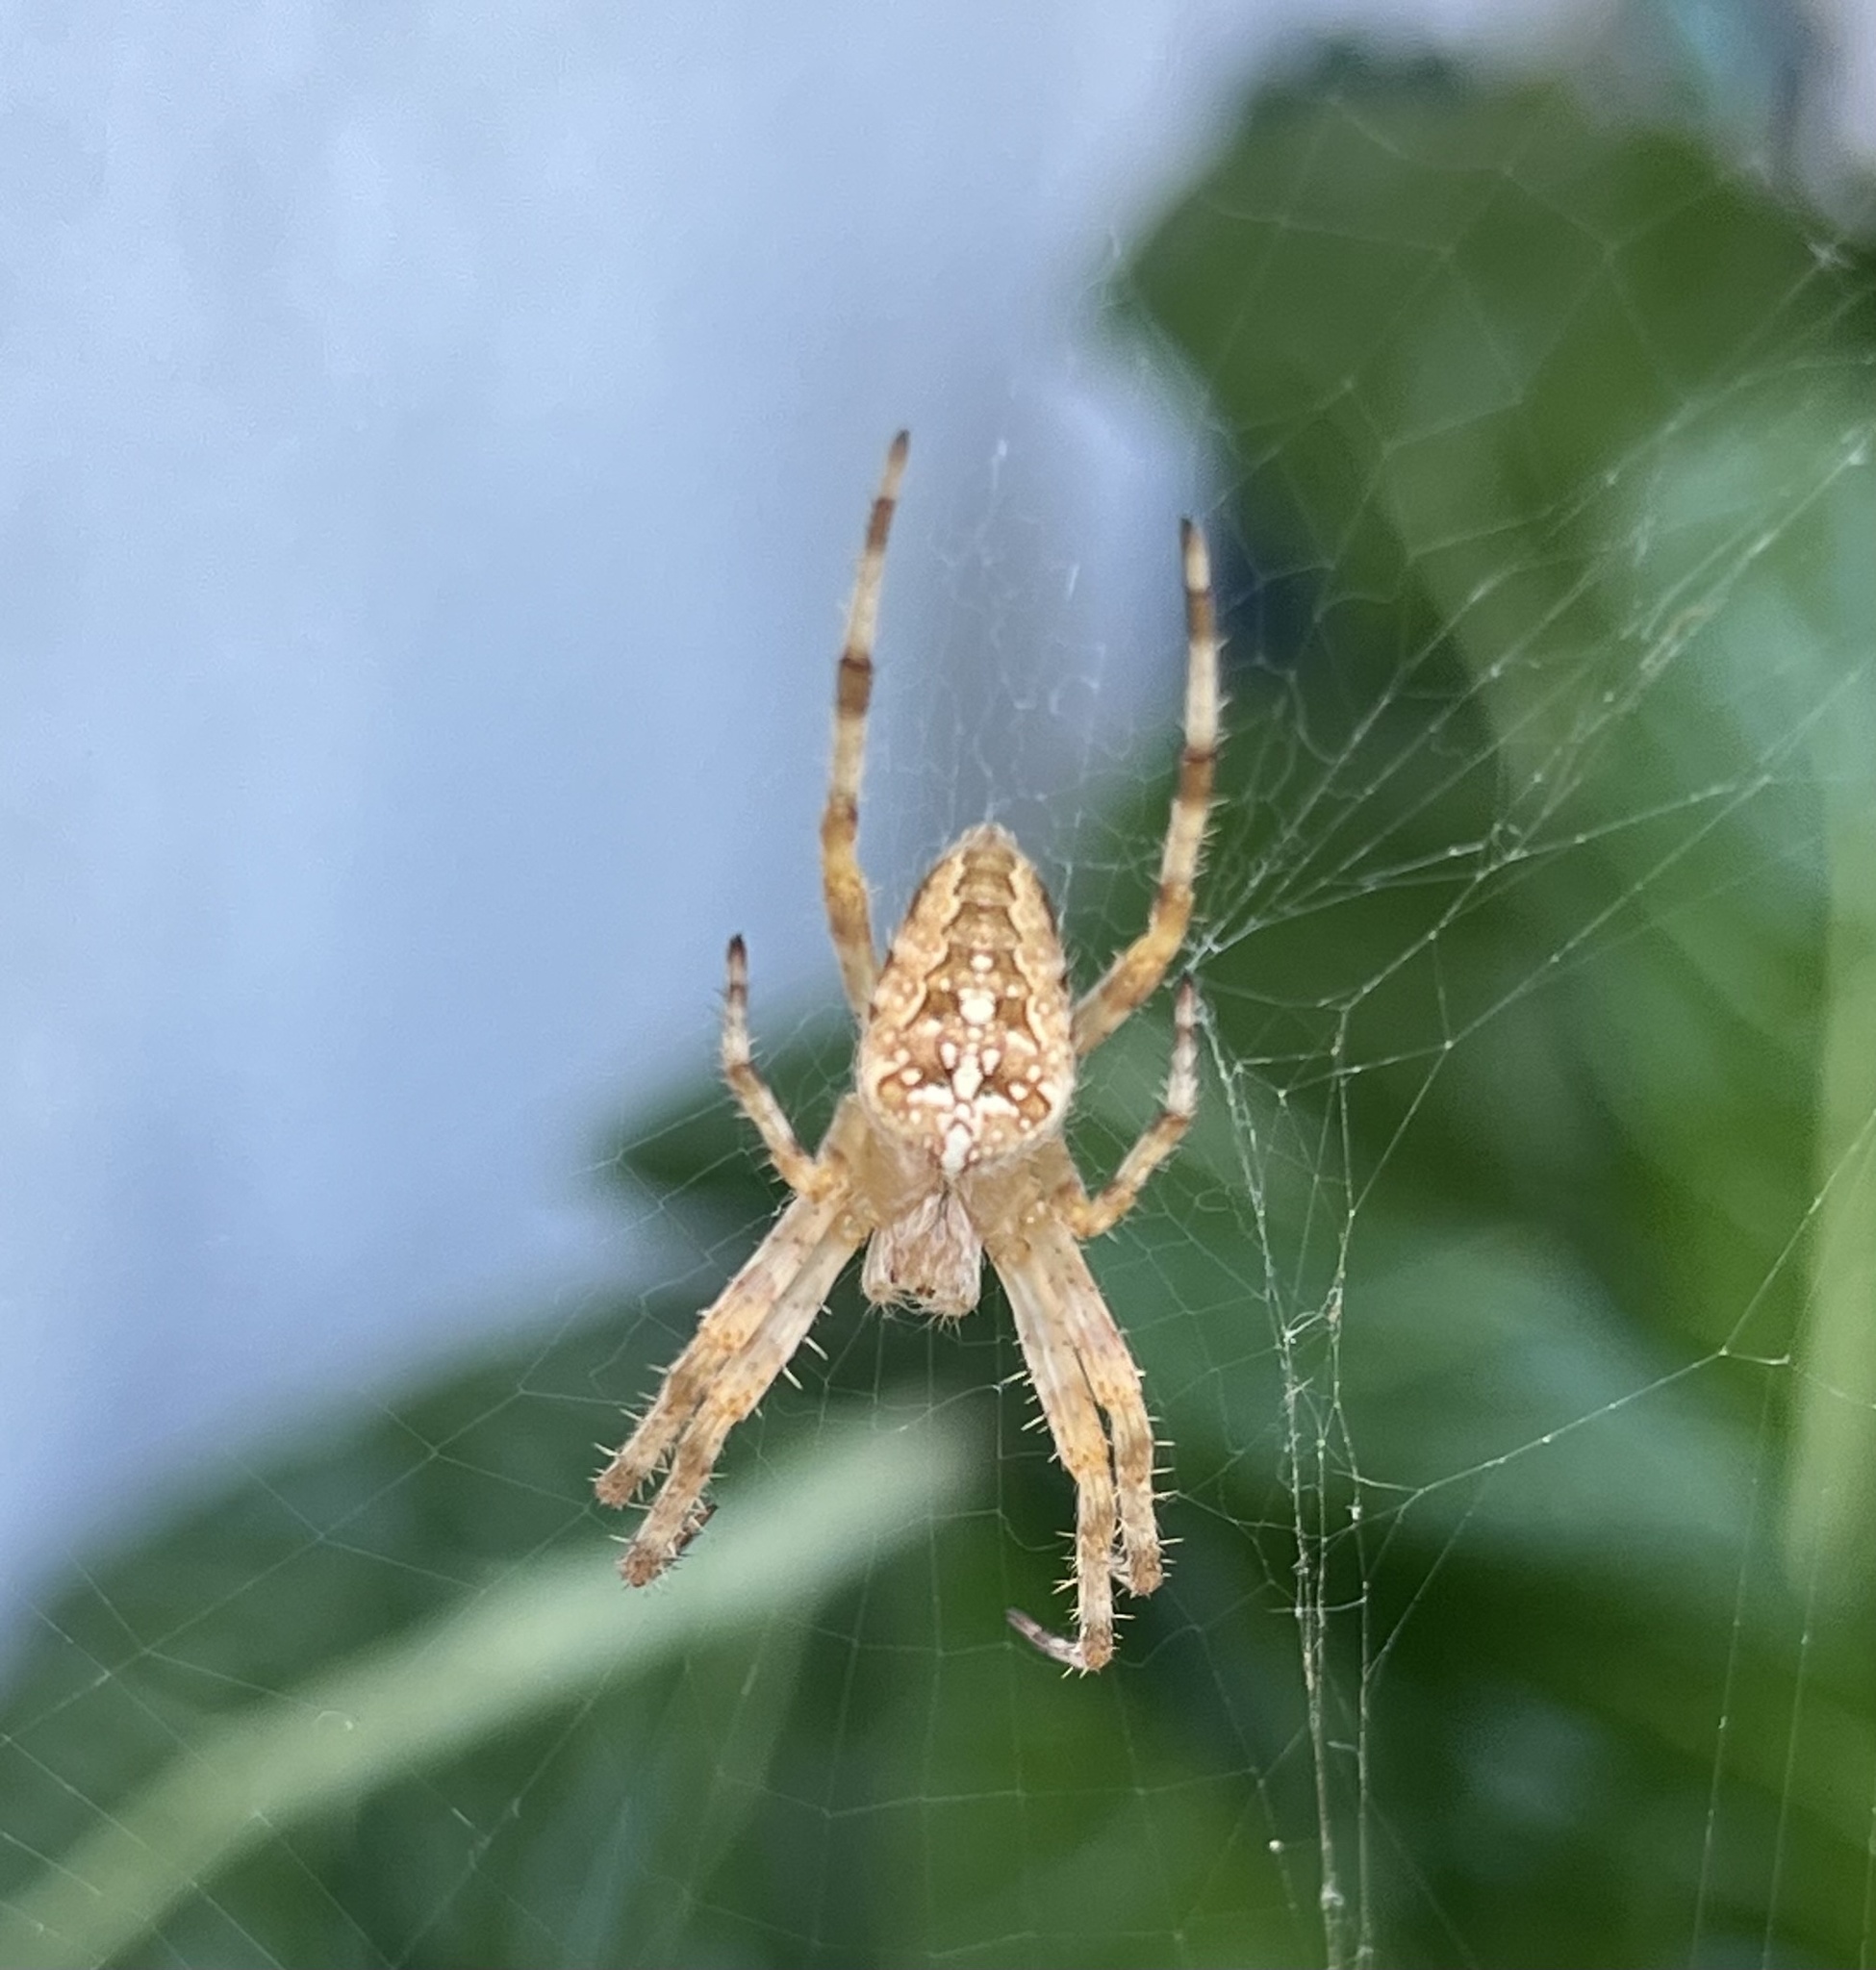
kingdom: Animalia
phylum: Arthropoda
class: Arachnida
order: Araneae
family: Araneidae
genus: Araneus
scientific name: Araneus diadematus
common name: Cross orbweaver
